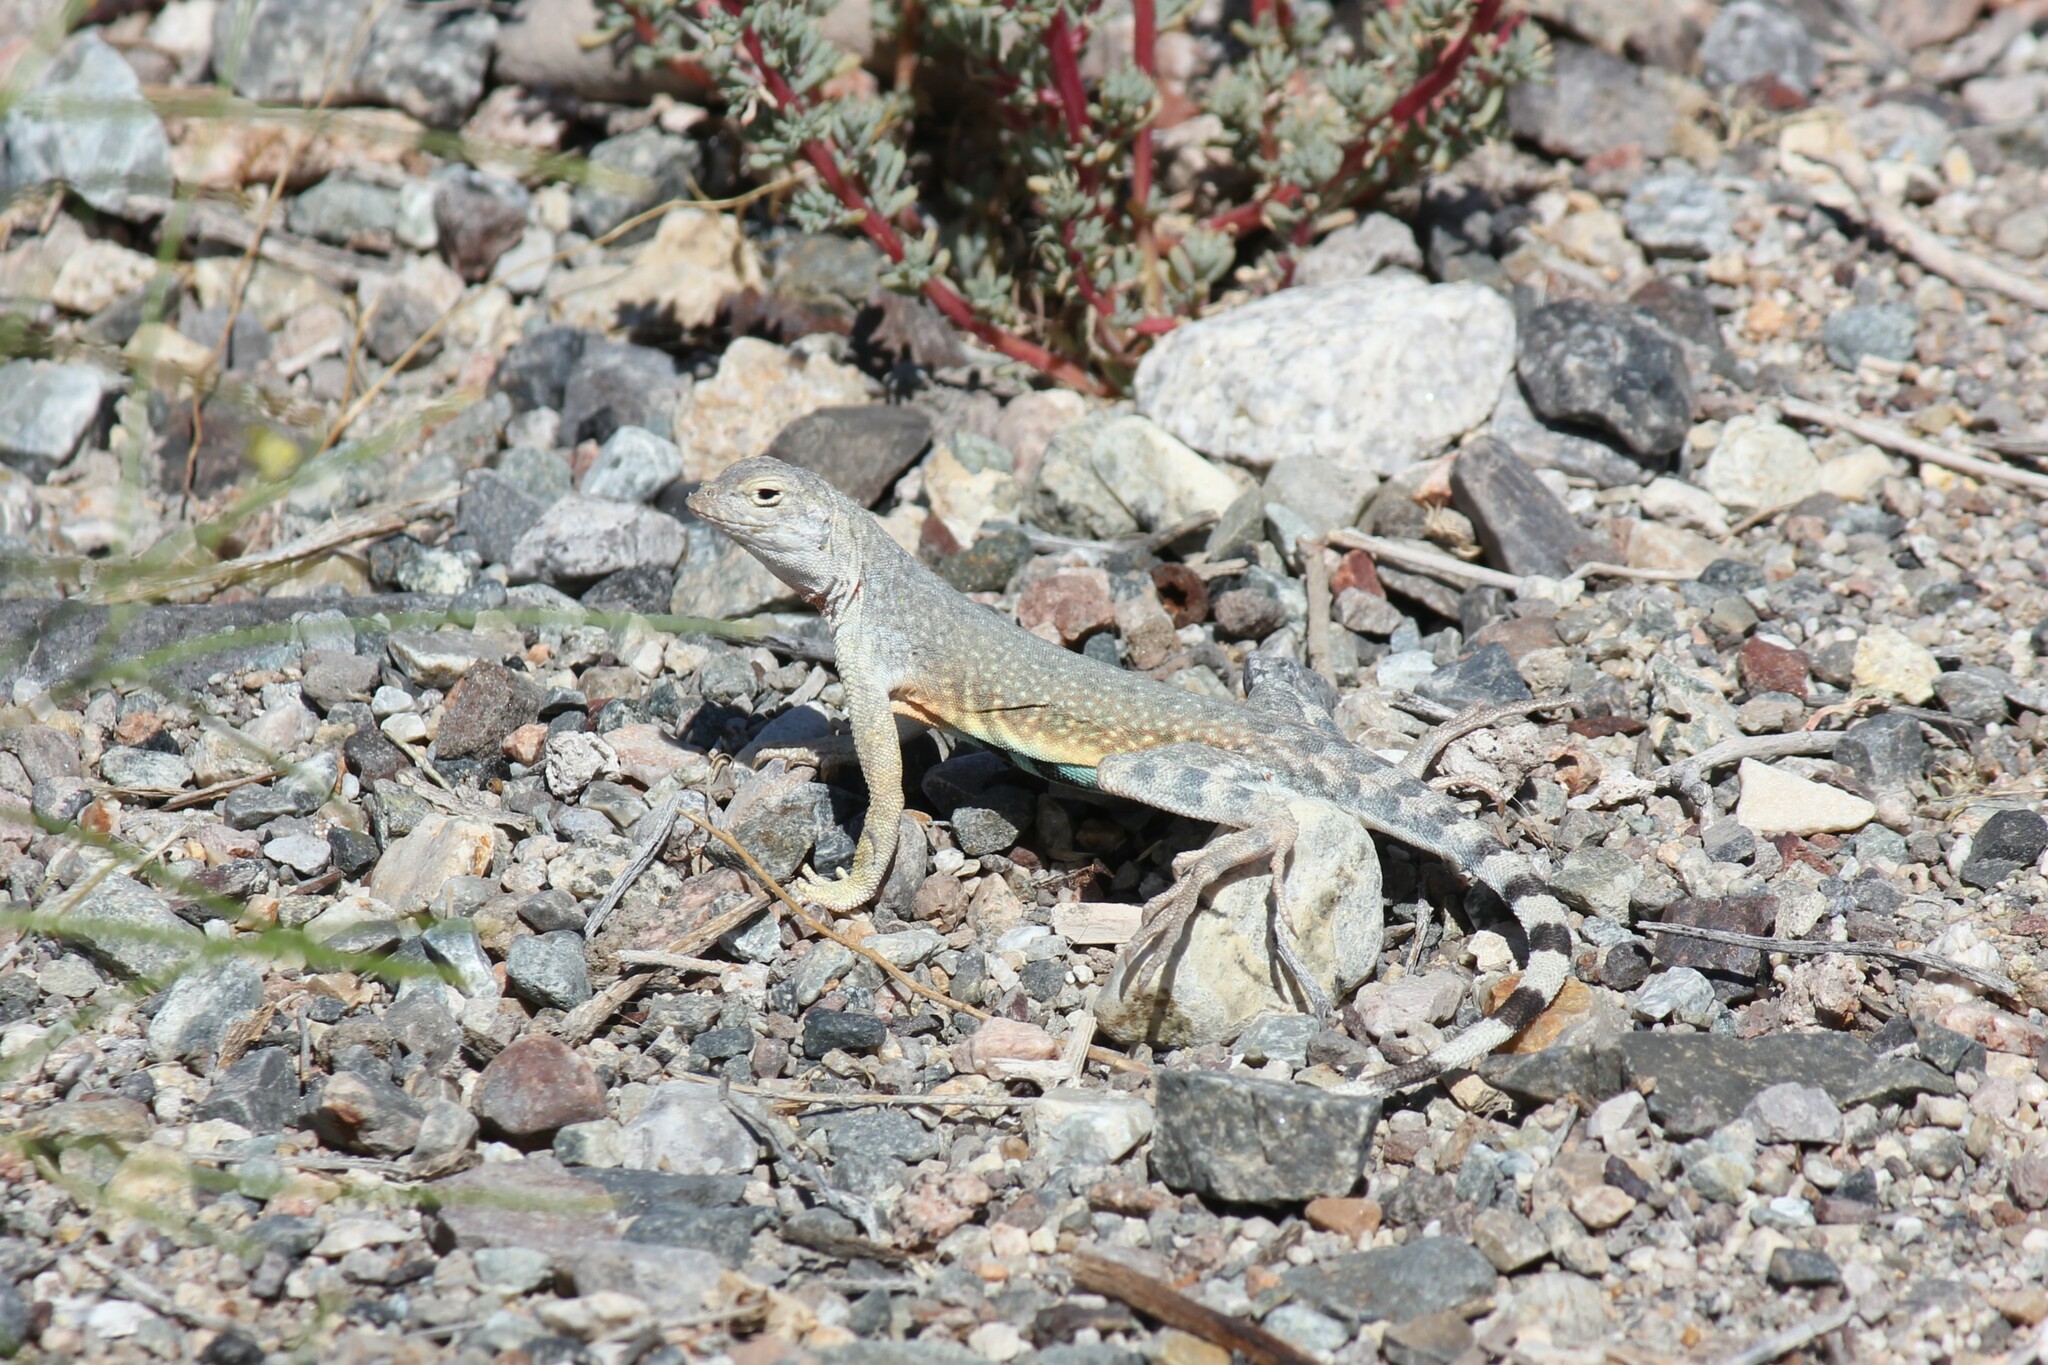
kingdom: Animalia
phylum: Chordata
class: Squamata
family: Phrynosomatidae
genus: Callisaurus
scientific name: Callisaurus draconoides
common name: Zebra-tailed lizard
